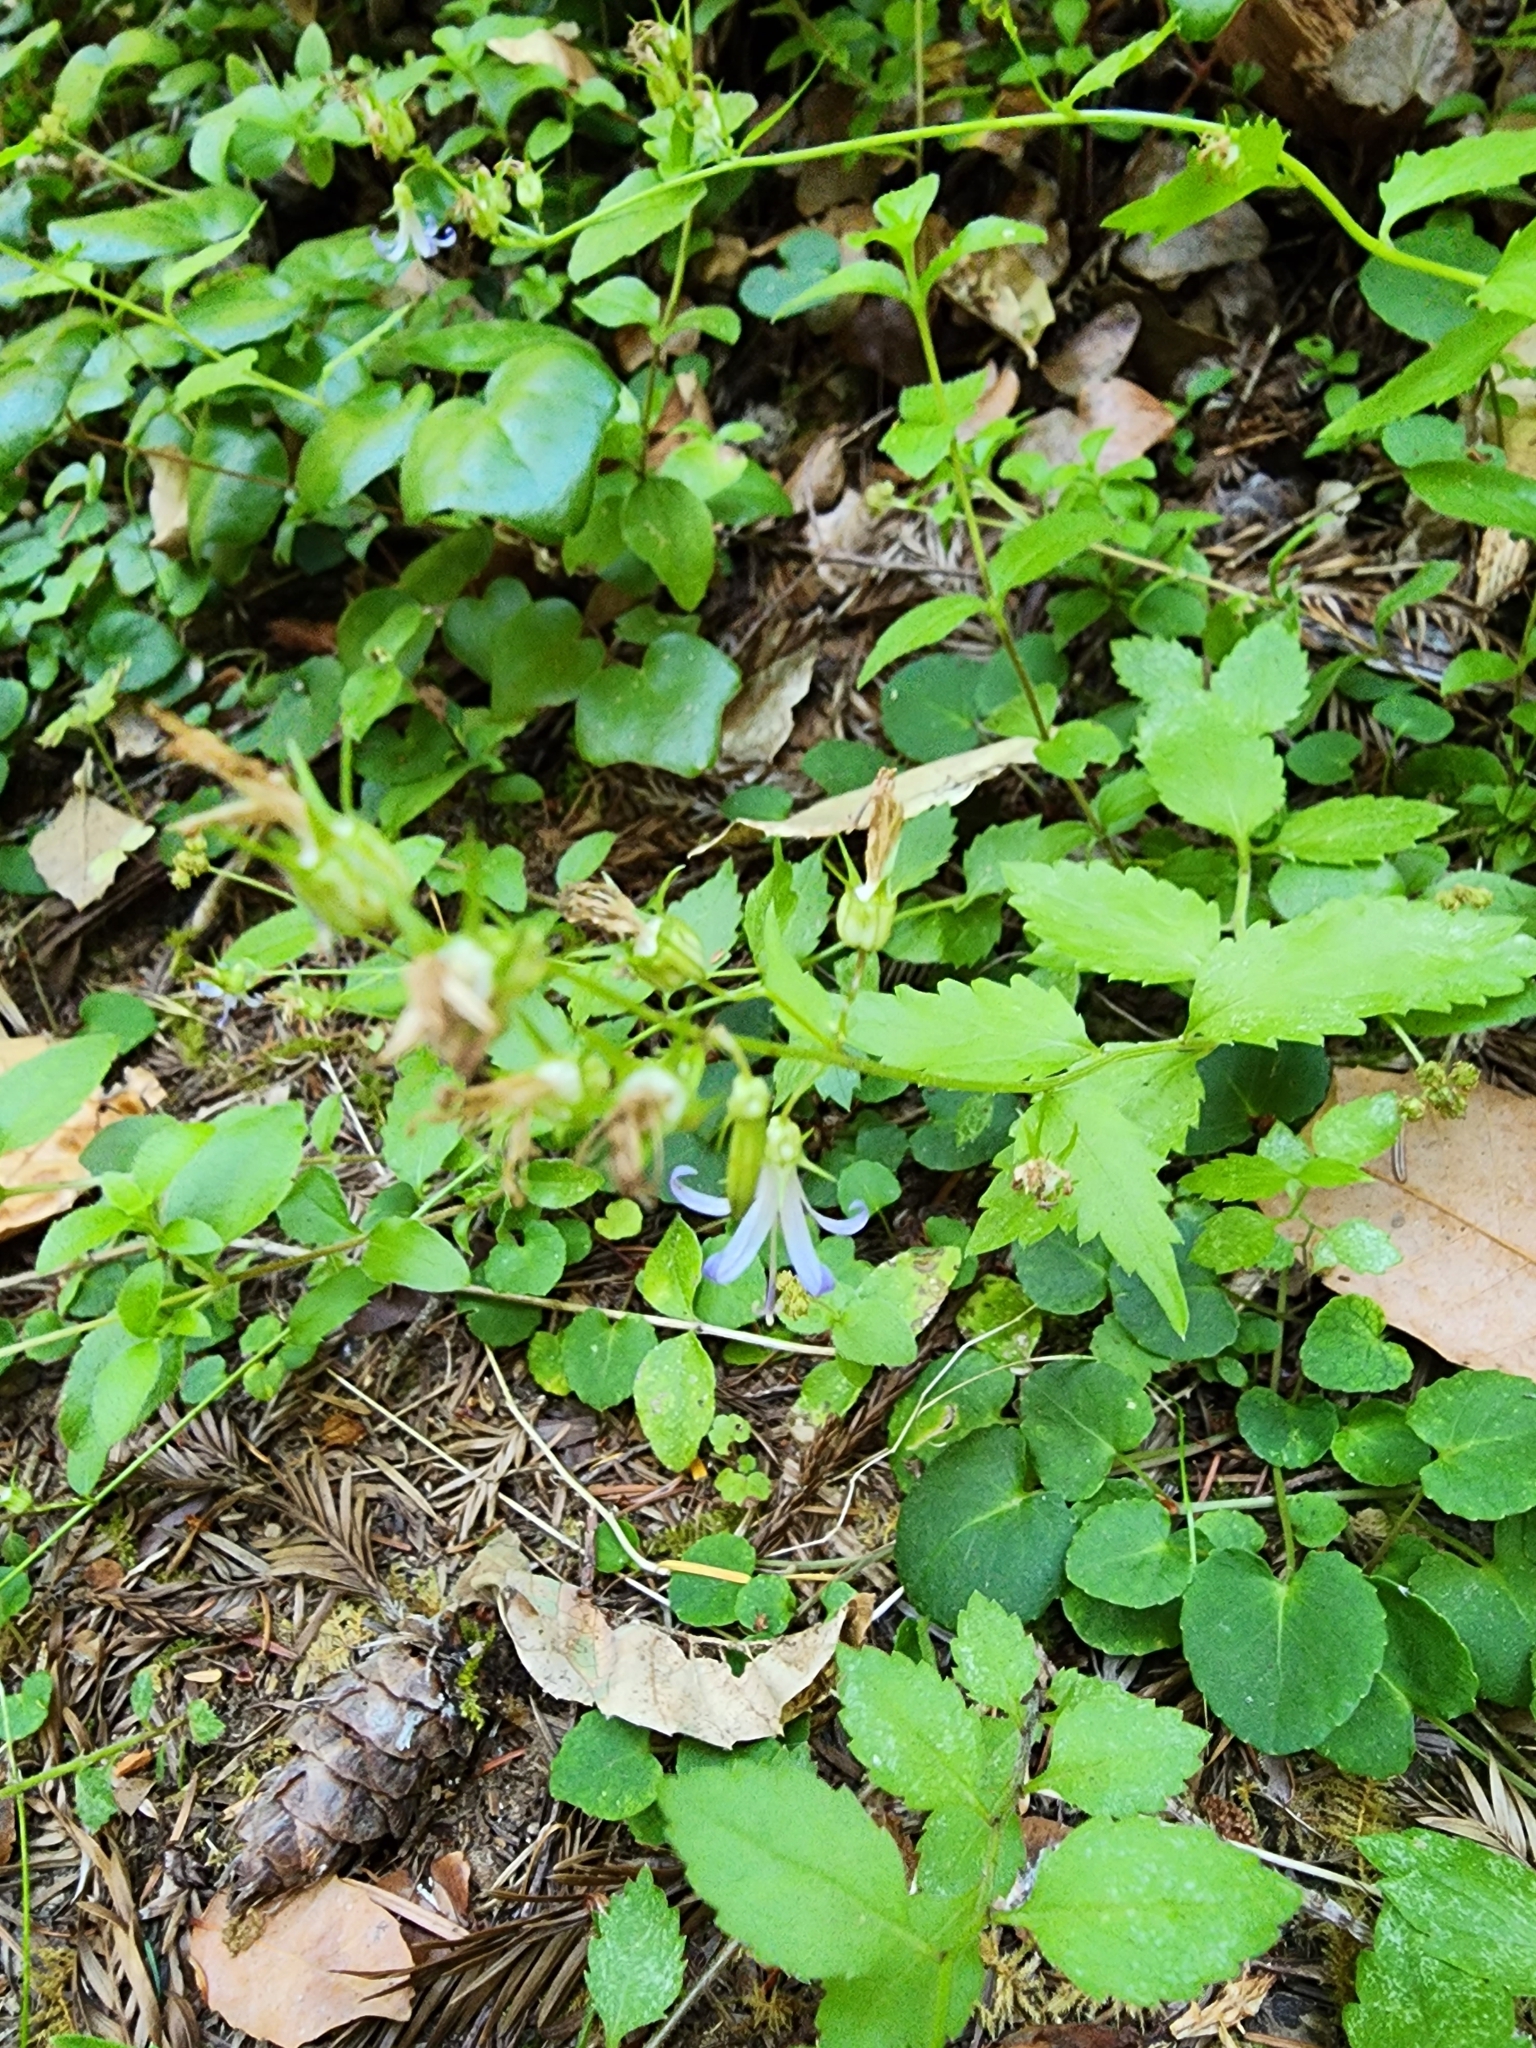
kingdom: Plantae
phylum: Tracheophyta
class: Magnoliopsida
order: Asterales
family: Campanulaceae
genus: Smithiastrum
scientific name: Smithiastrum prenanthoides
